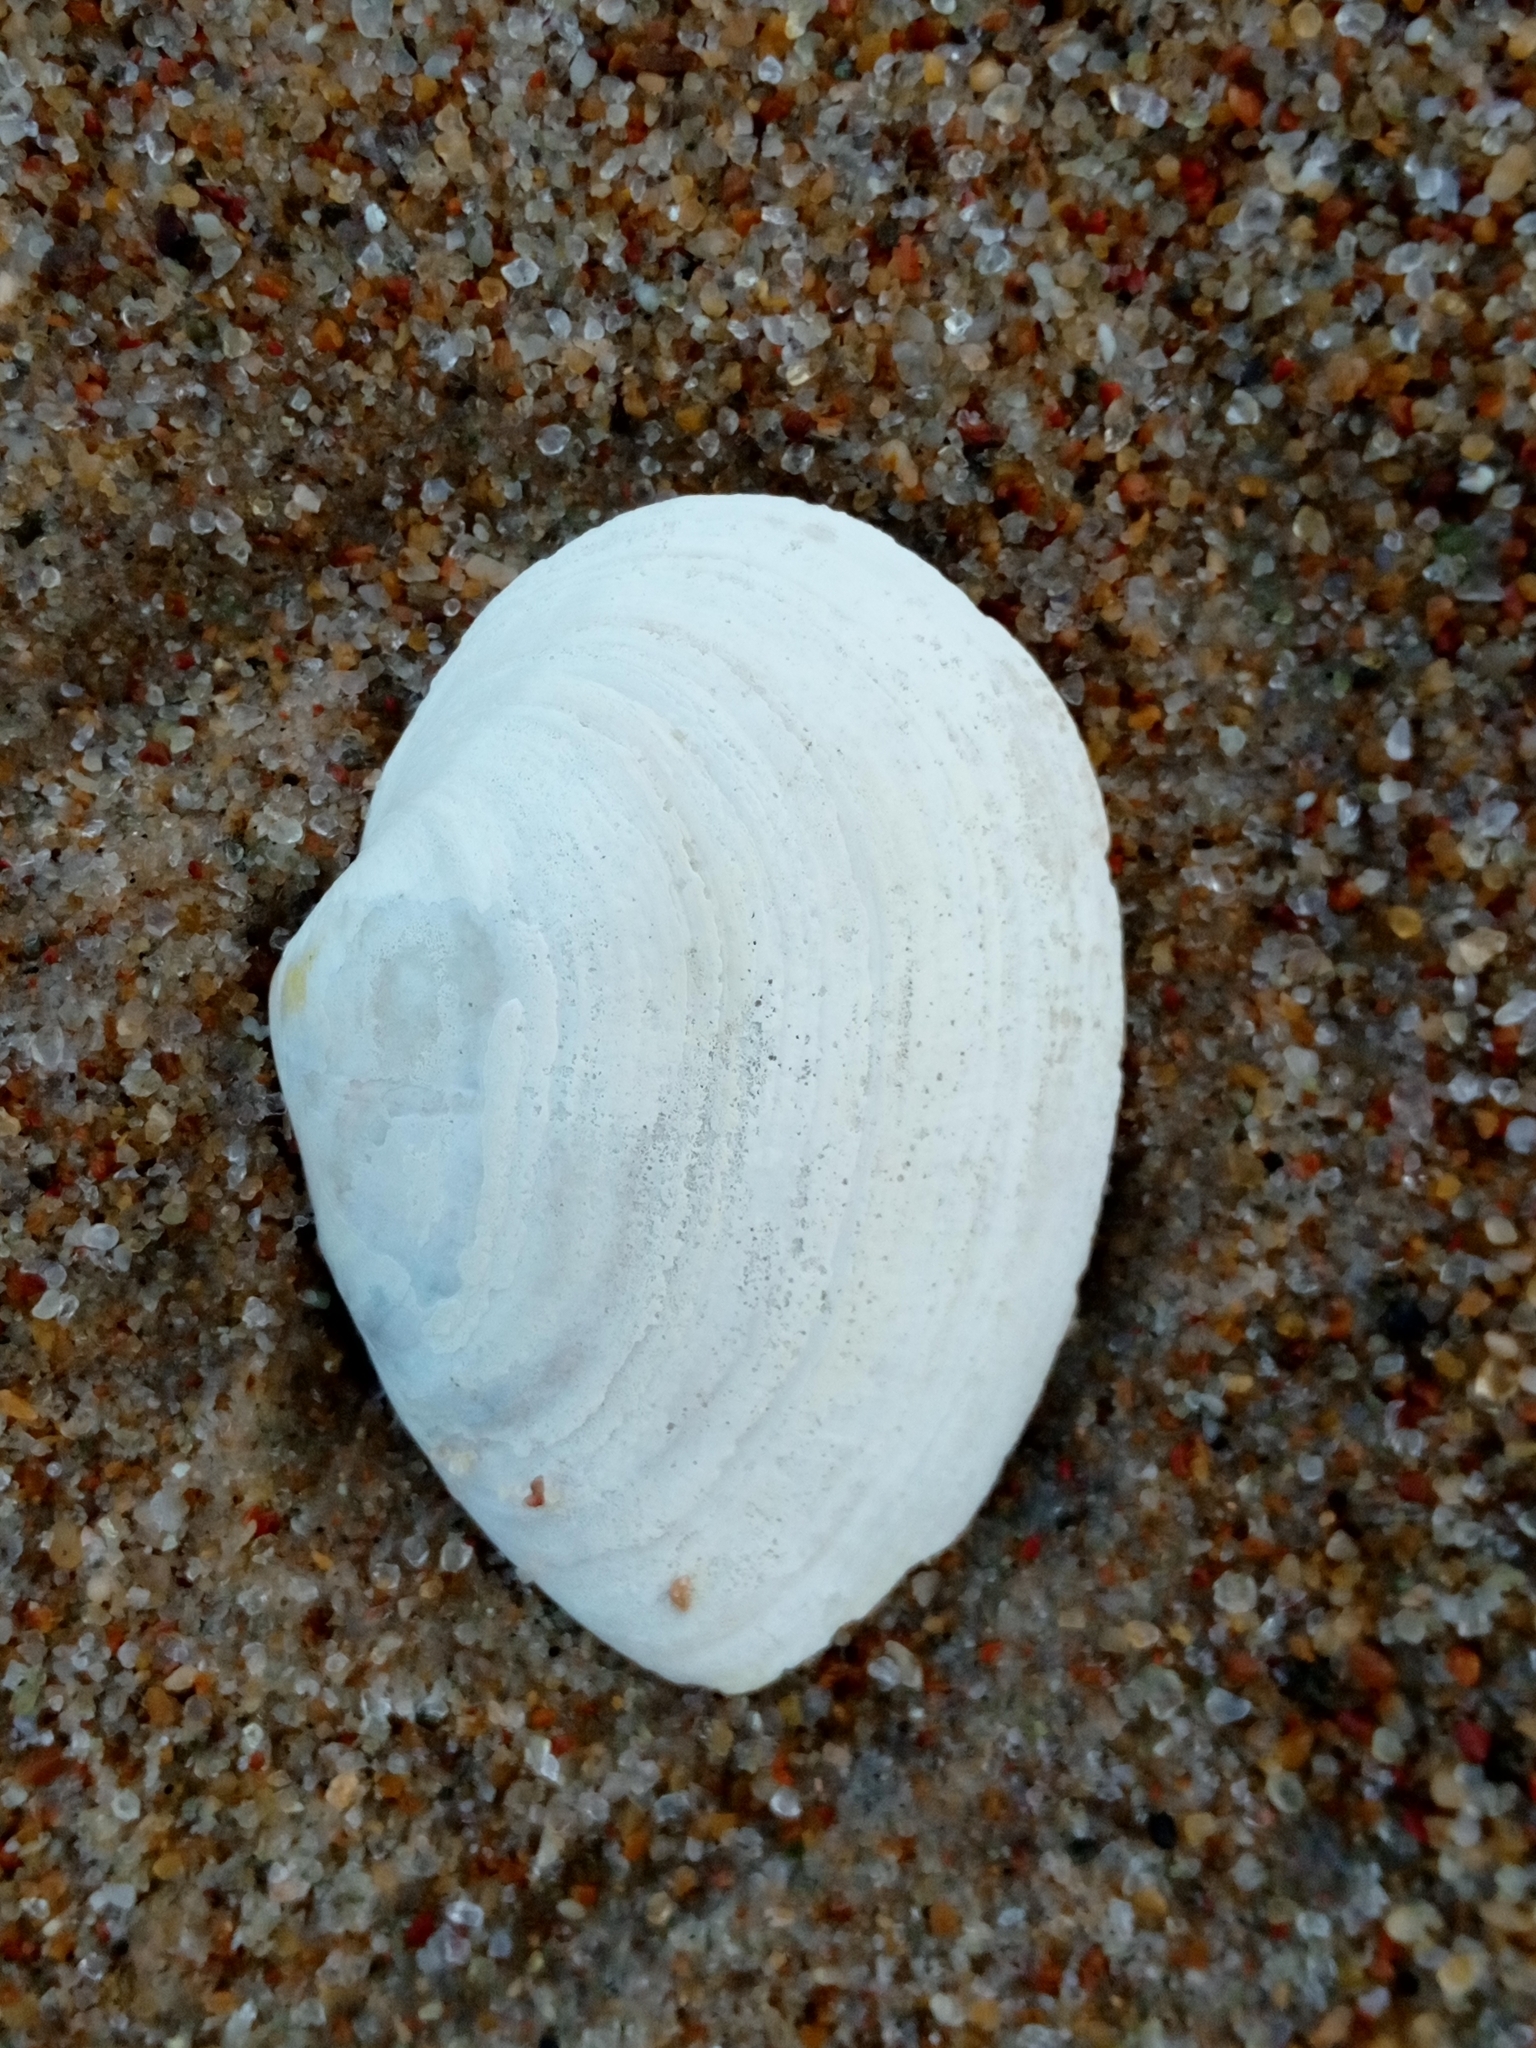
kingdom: Animalia
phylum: Mollusca
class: Bivalvia
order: Myida
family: Myidae
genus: Mya
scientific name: Mya arenaria
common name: Soft-shelled clam
